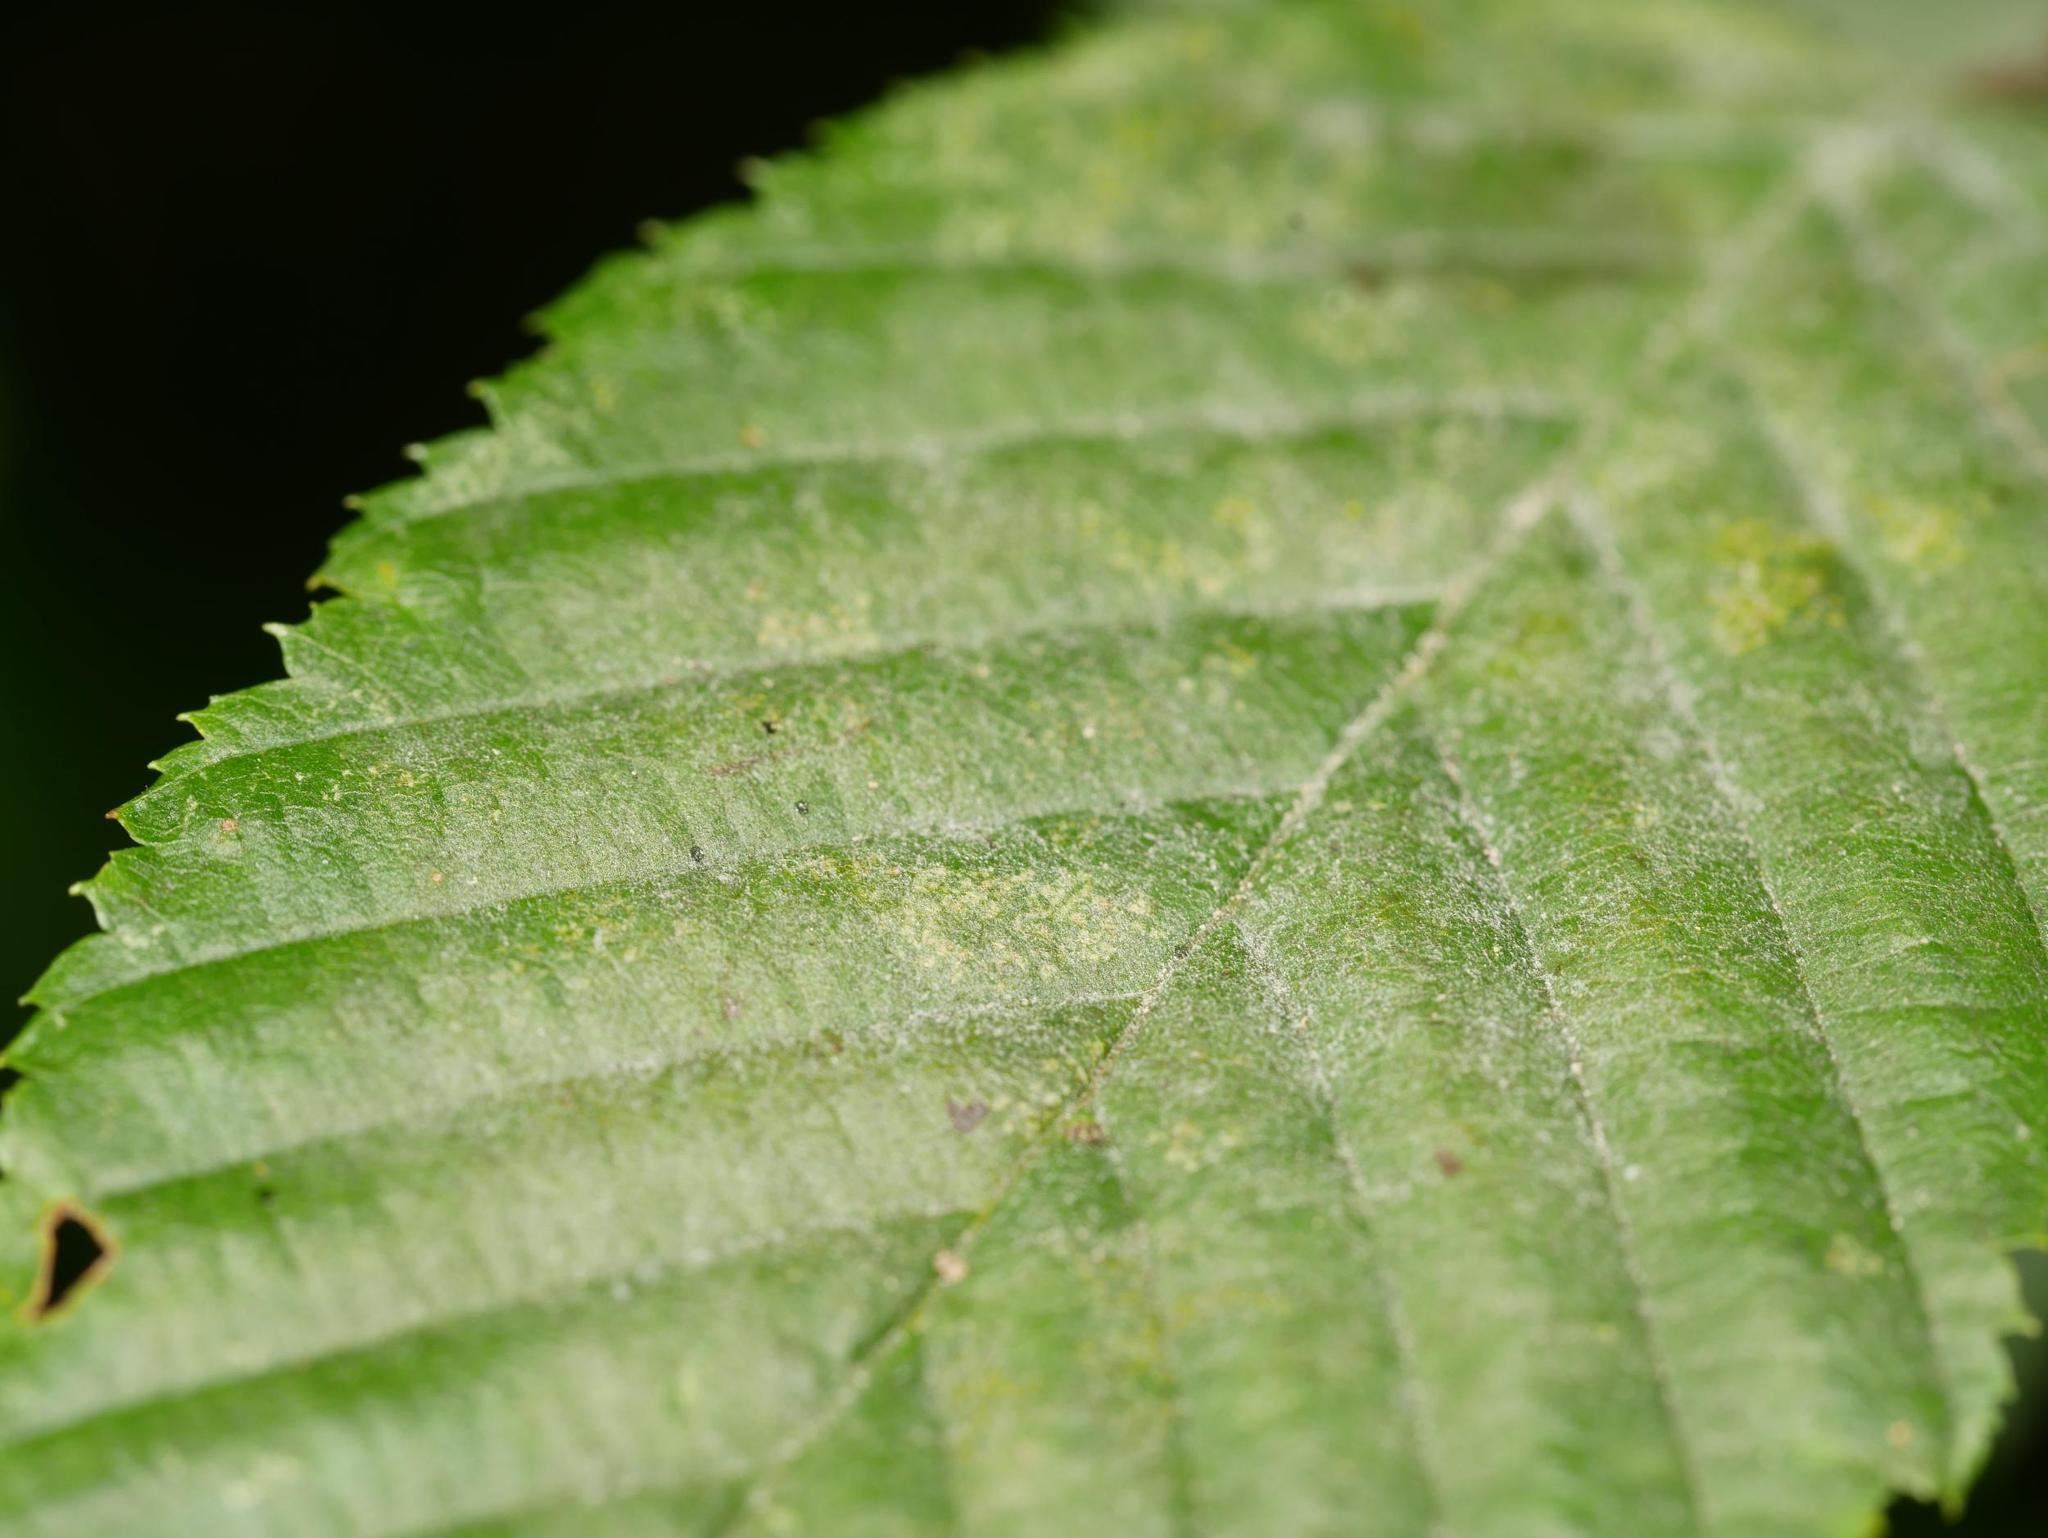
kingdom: Fungi
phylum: Ascomycota
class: Leotiomycetes
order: Helotiales
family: Erysiphaceae
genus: Erysiphe
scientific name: Erysiphe arcuata
